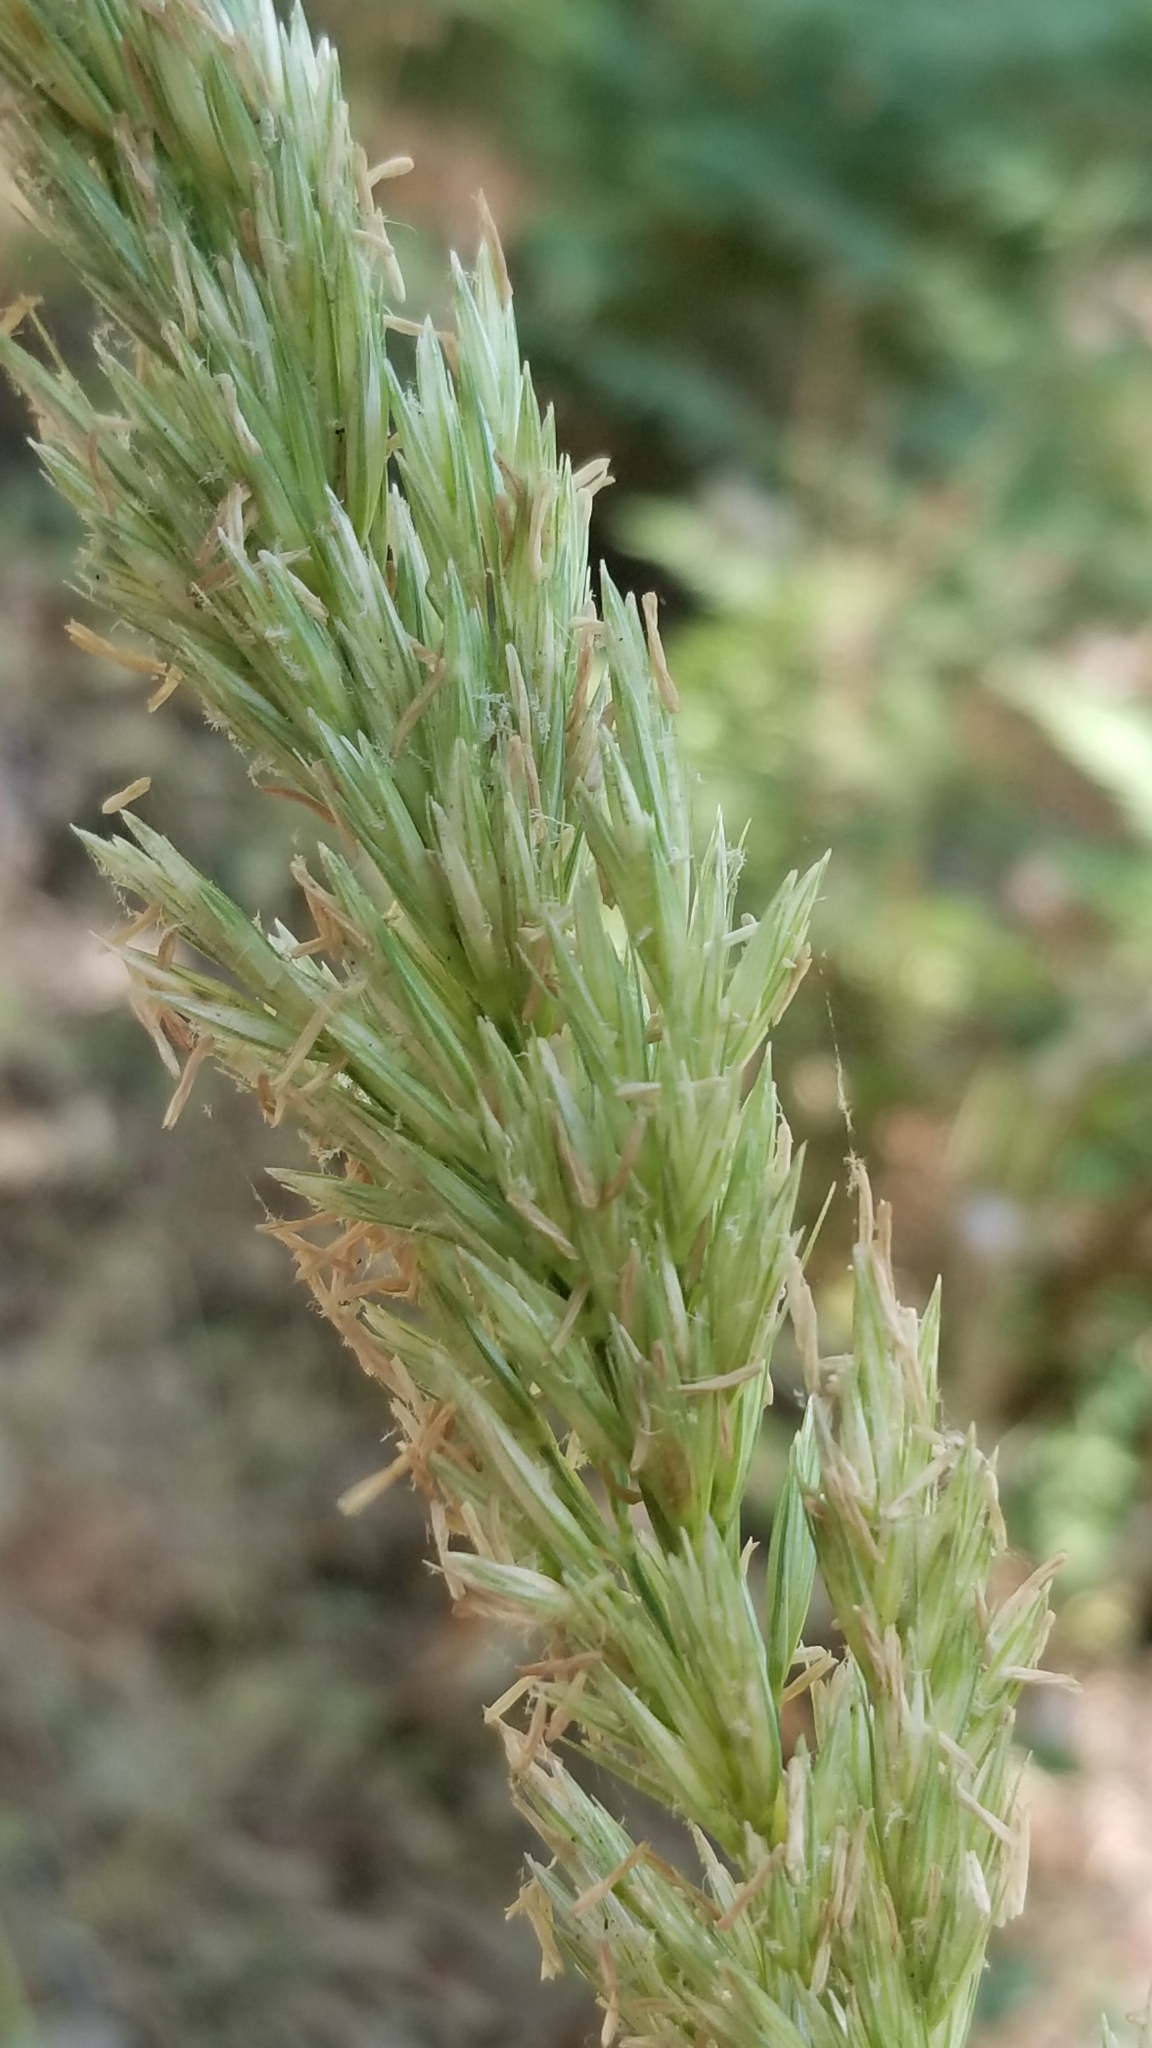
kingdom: Plantae
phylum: Tracheophyta
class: Liliopsida
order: Poales
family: Poaceae
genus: Leymus
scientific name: Leymus condensatus
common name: Giant wild rye
